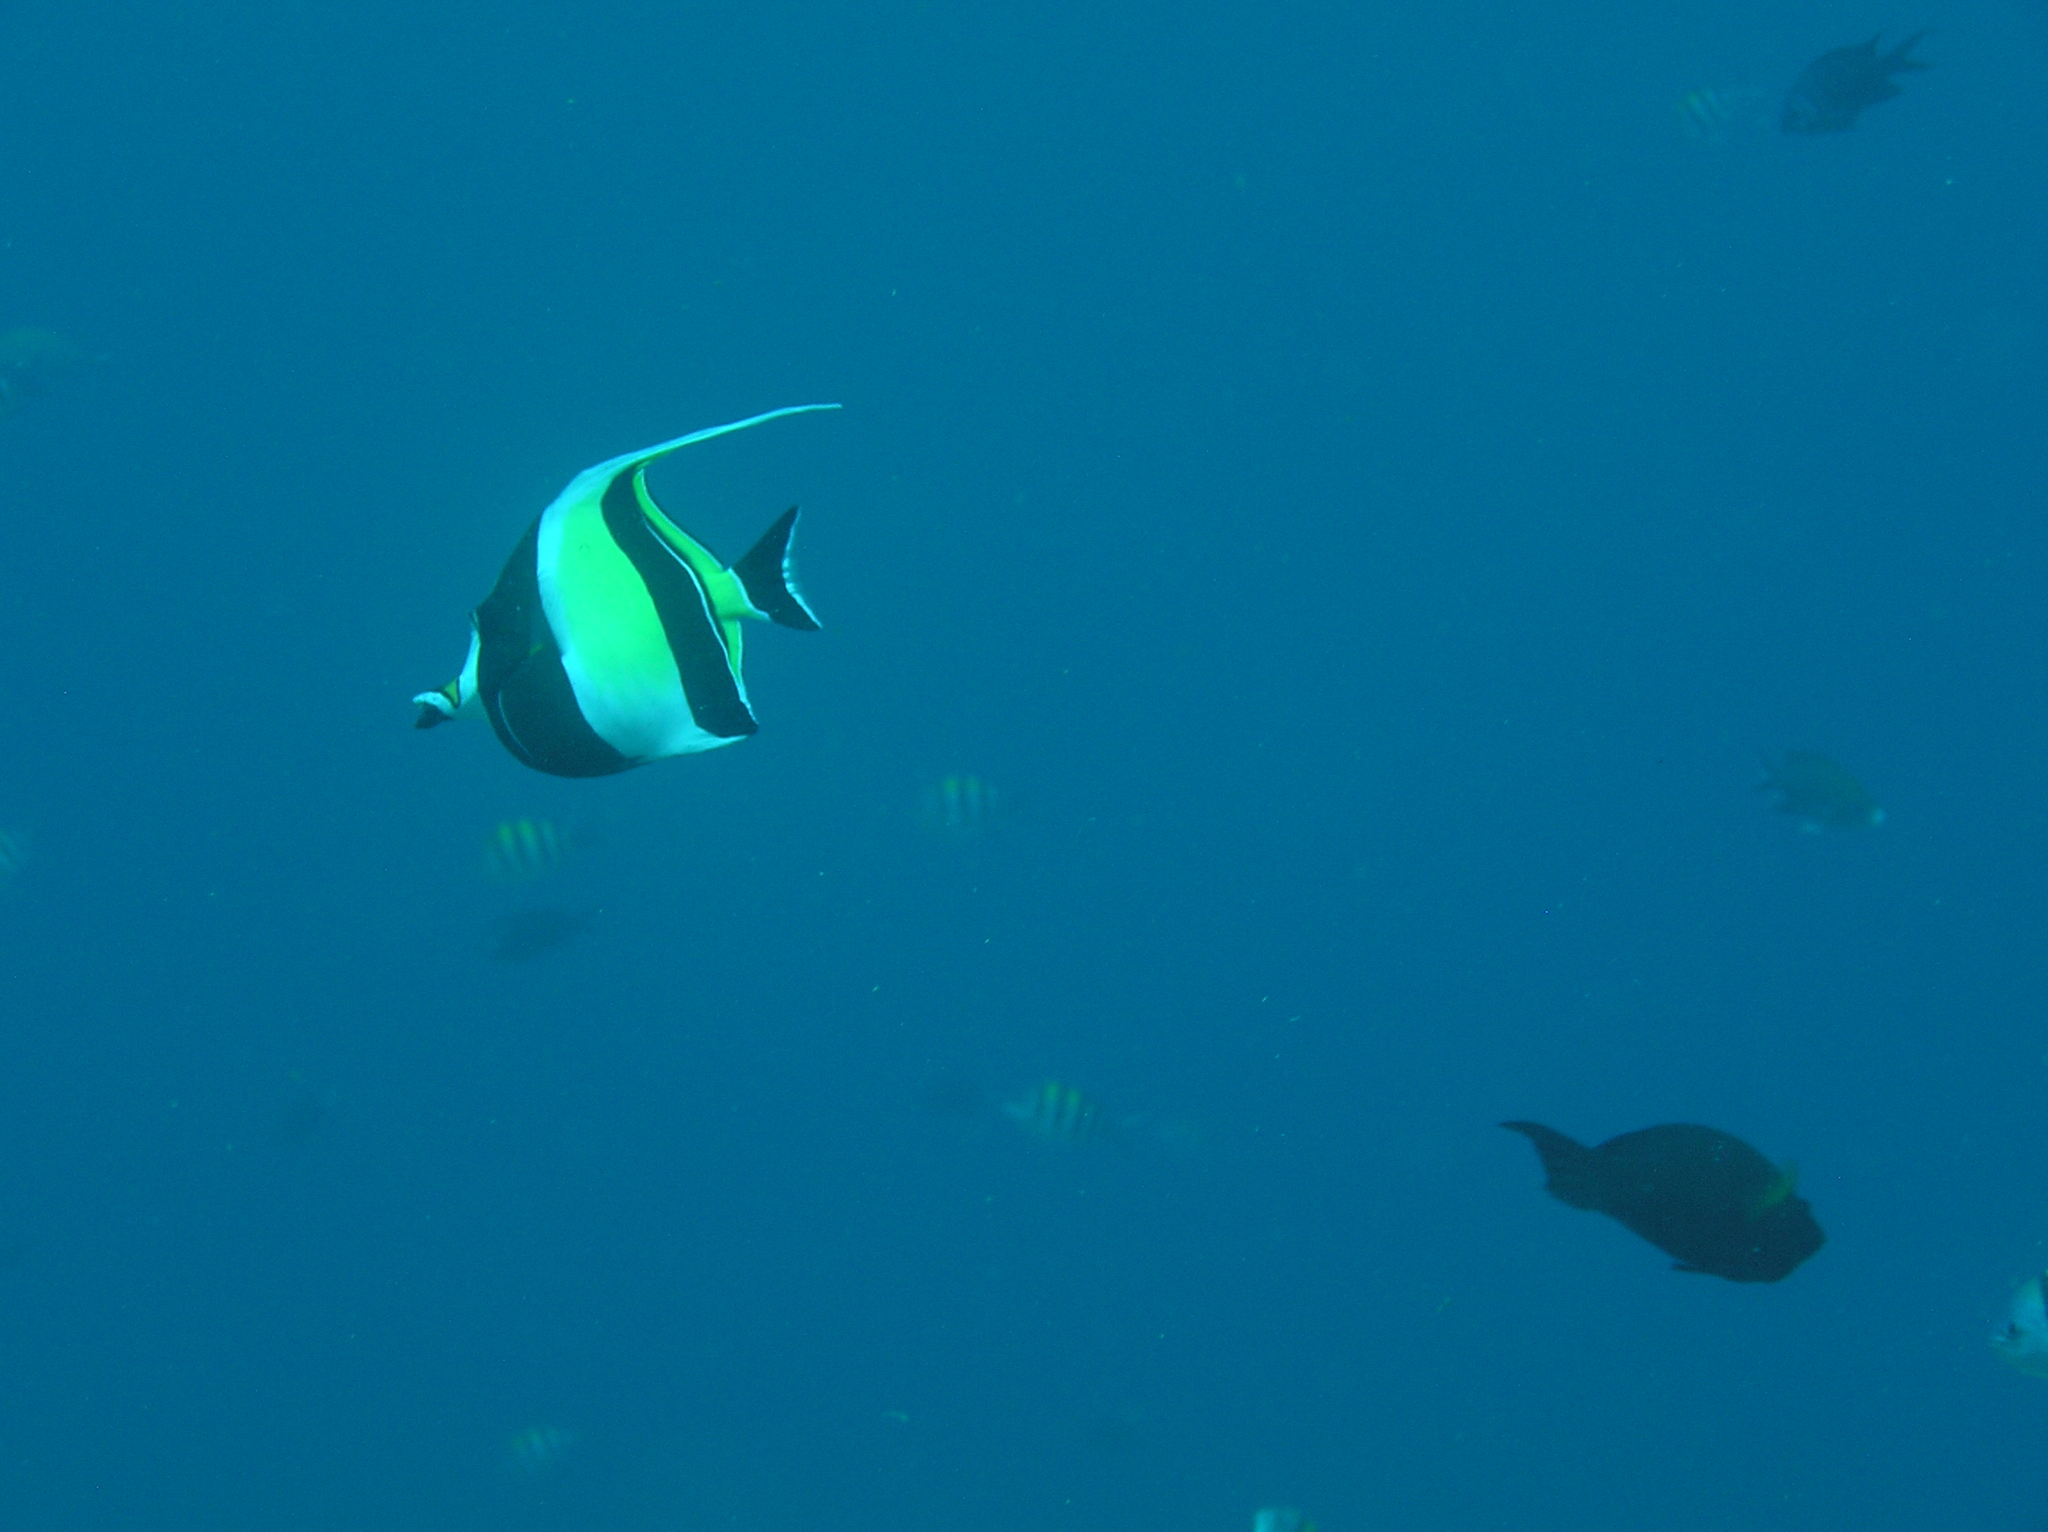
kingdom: Animalia
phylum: Chordata
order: Perciformes
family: Zanclidae
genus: Zanclus
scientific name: Zanclus cornutus
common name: Moorish idol
